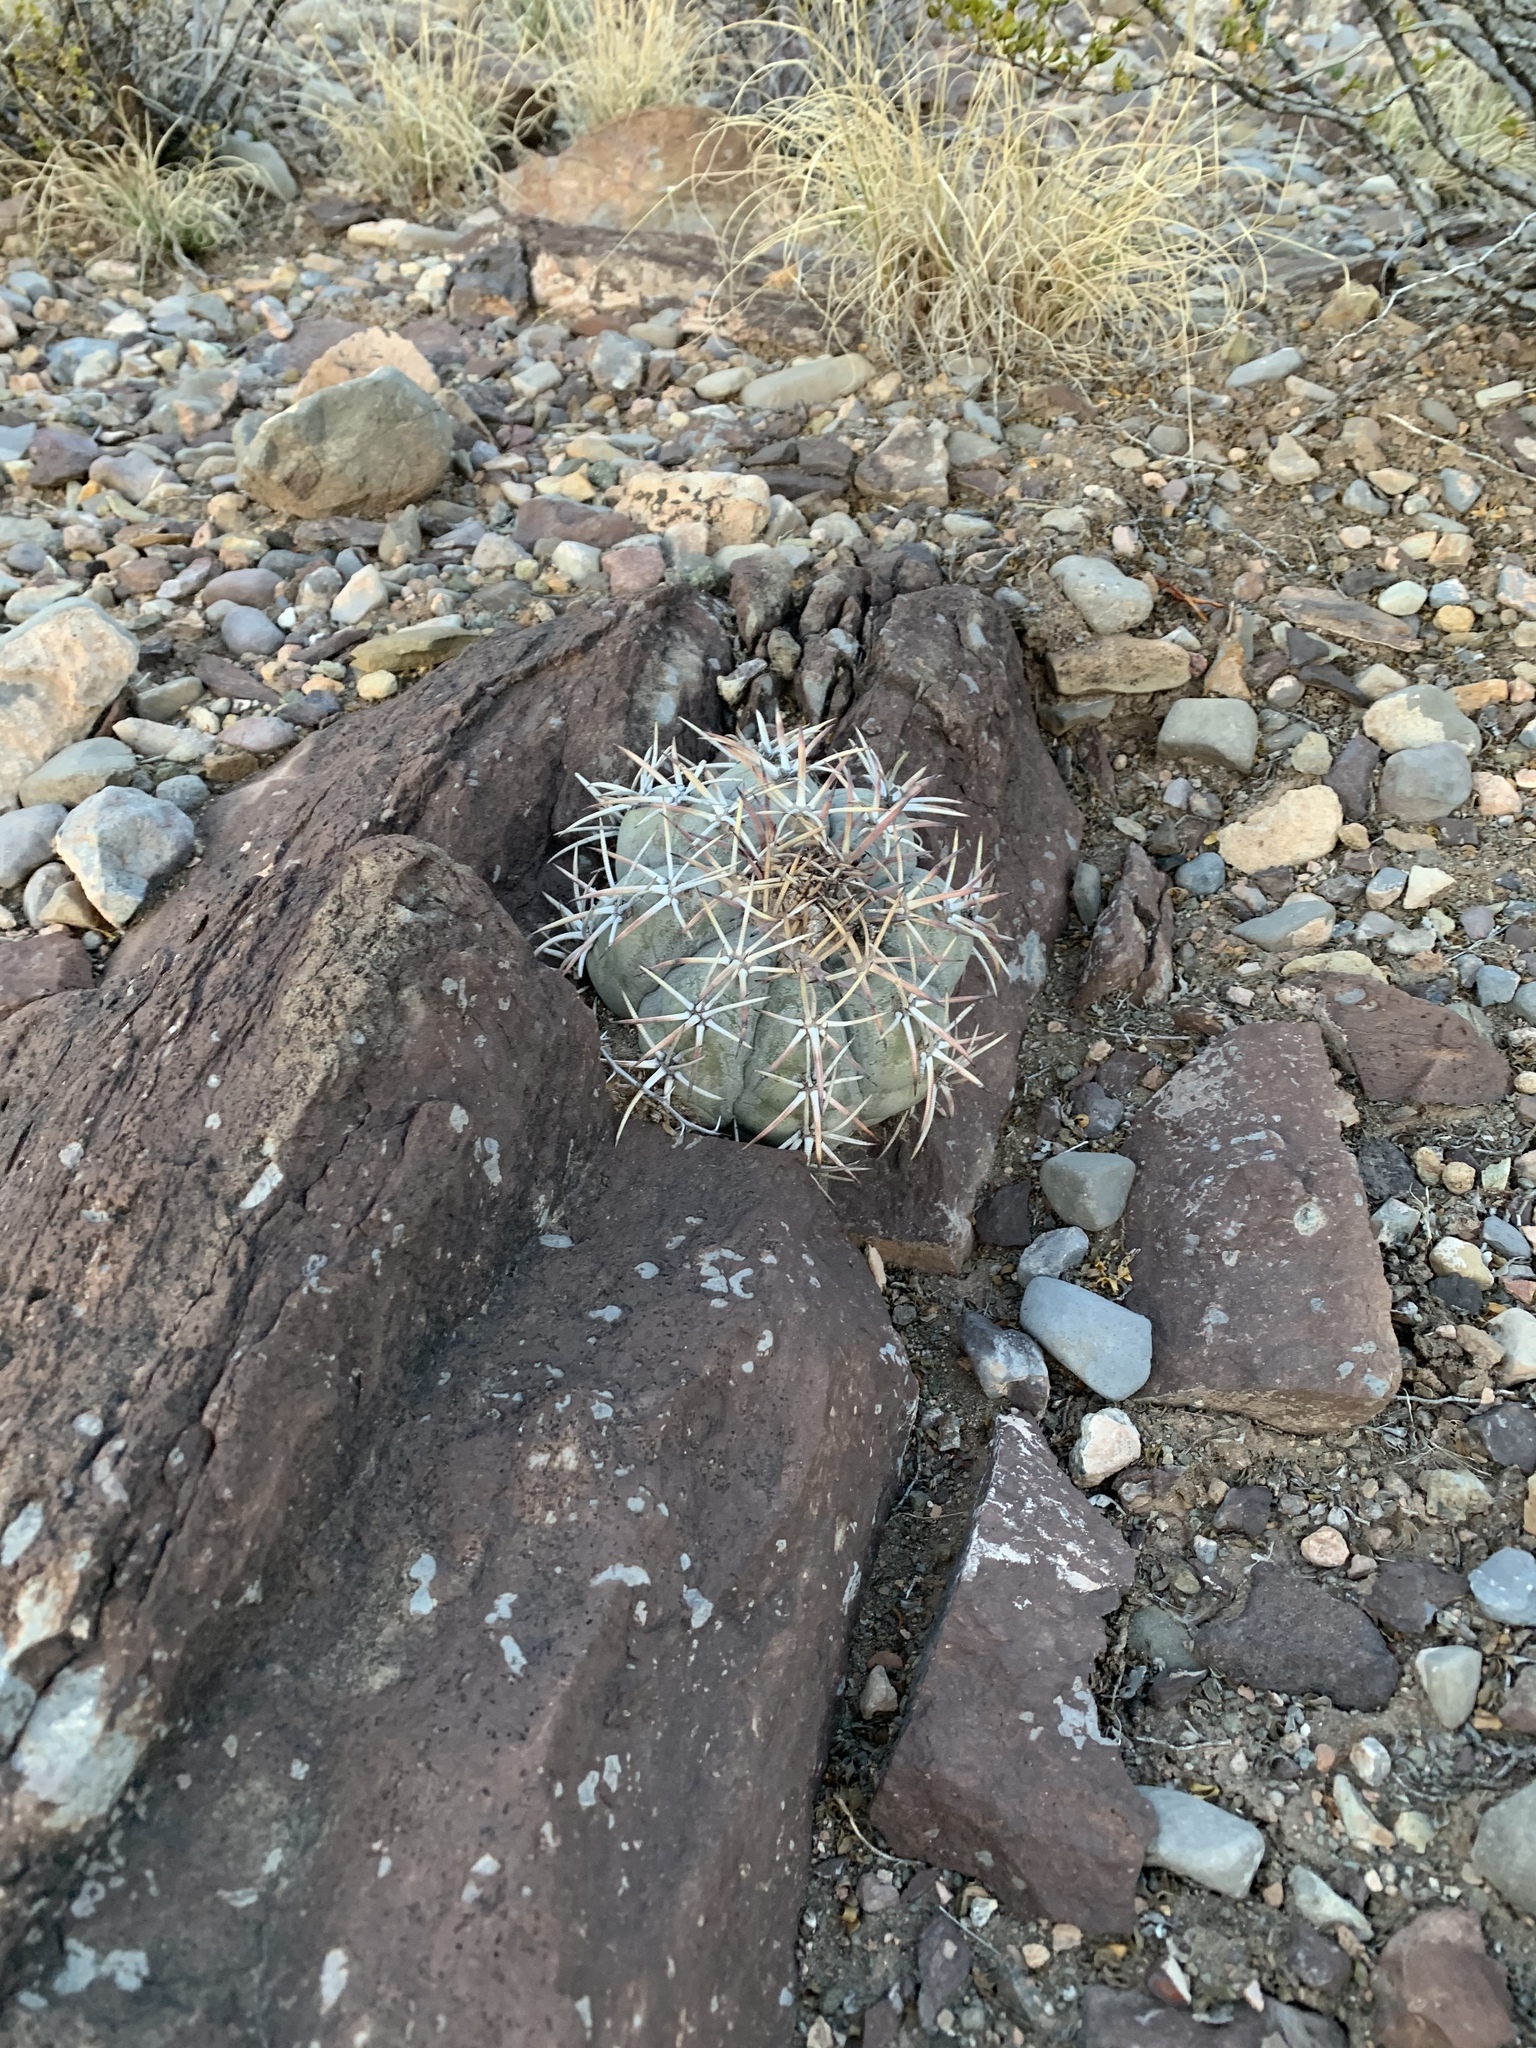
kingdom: Plantae
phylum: Tracheophyta
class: Magnoliopsida
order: Caryophyllales
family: Cactaceae
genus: Echinocactus
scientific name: Echinocactus horizonthalonius
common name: Devilshead
